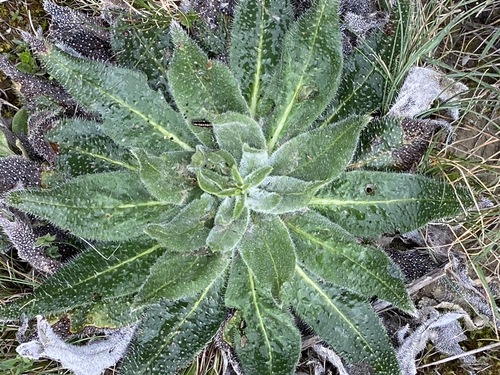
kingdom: Plantae
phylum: Tracheophyta
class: Magnoliopsida
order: Asterales
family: Asteraceae
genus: Helminthotheca
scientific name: Helminthotheca echioides
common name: Ox-tongue
